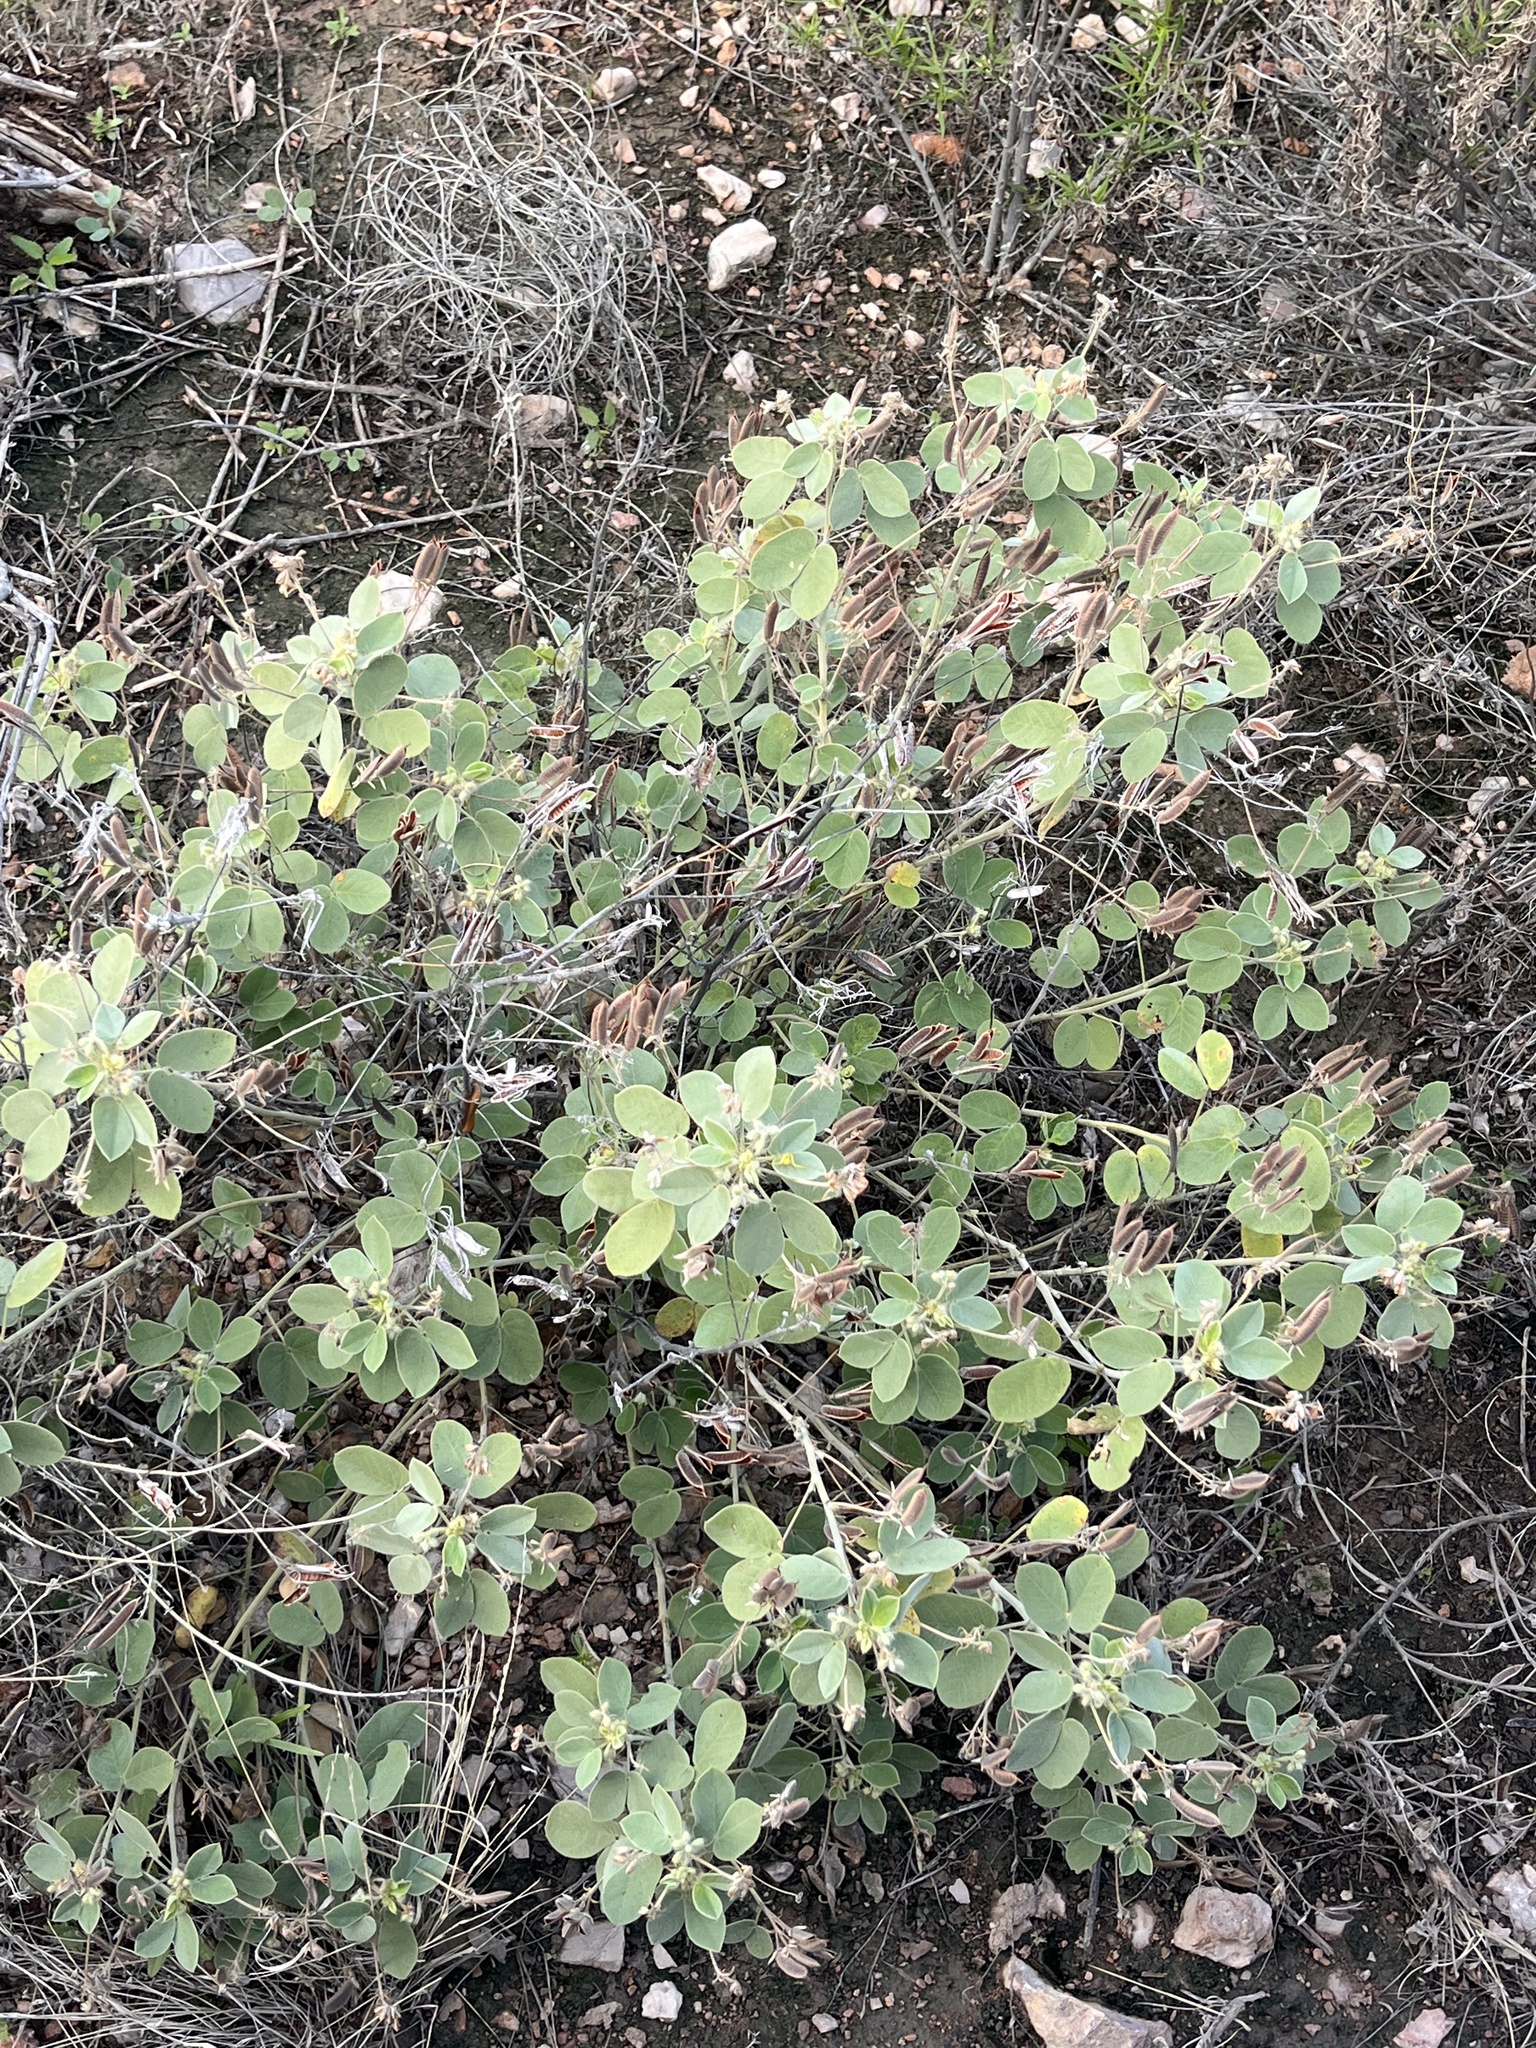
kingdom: Plantae
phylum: Tracheophyta
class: Magnoliopsida
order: Fabales
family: Fabaceae
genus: Senna
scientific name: Senna pilosior
